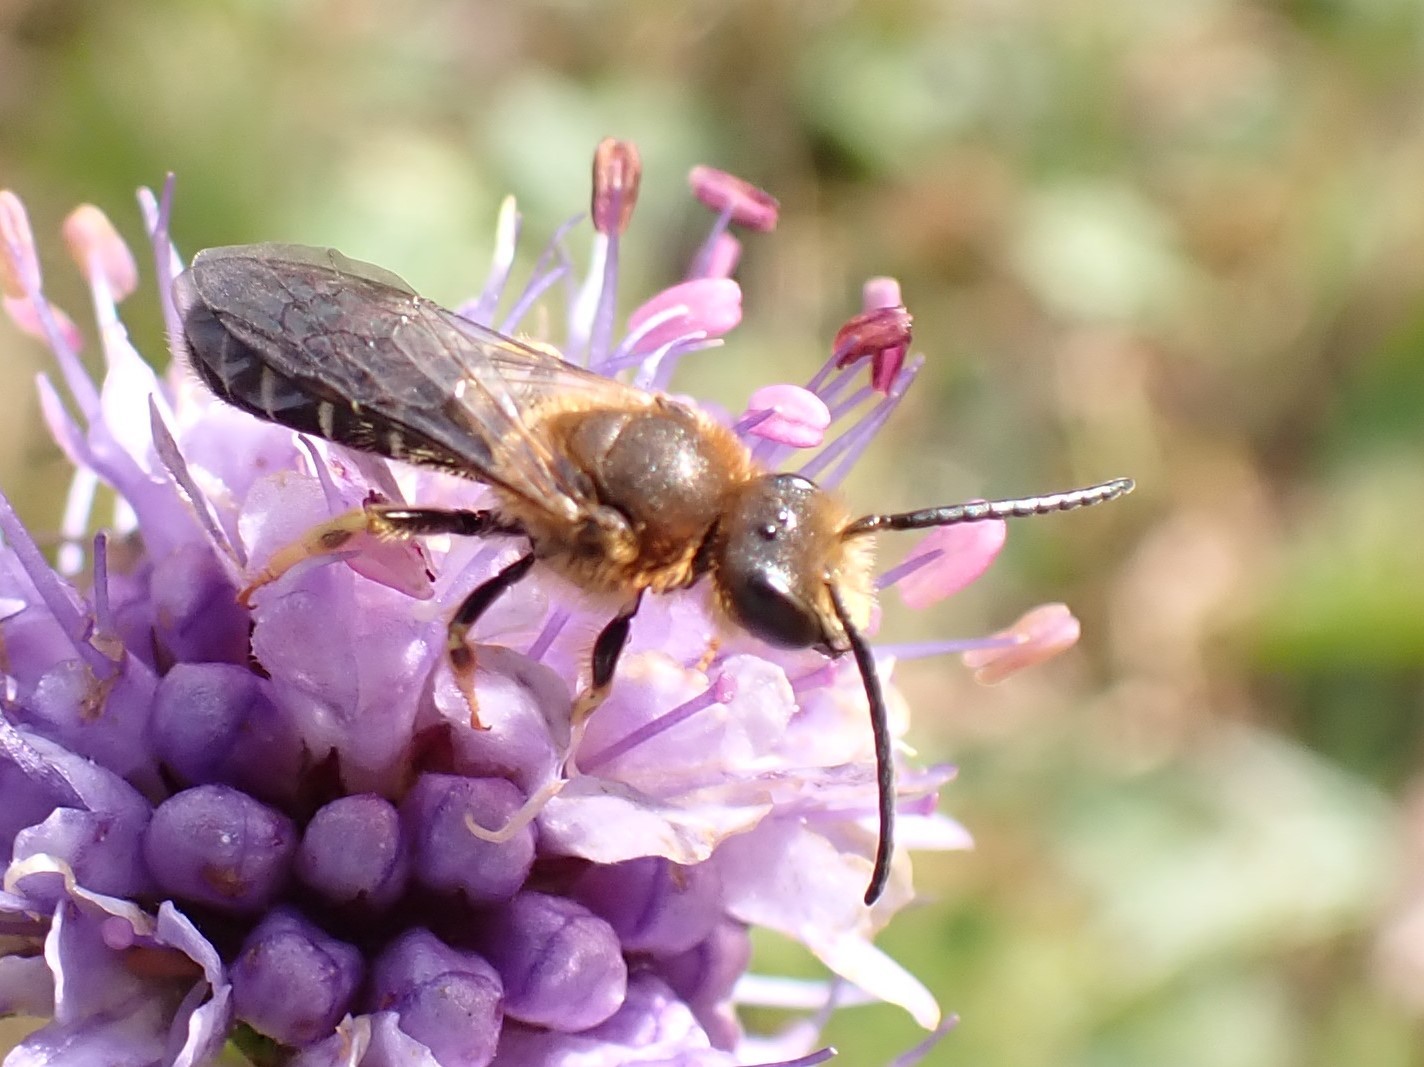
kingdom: Animalia
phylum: Arthropoda
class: Insecta
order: Hymenoptera
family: Halictidae
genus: Halictus
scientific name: Halictus rubicundus
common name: Orange-legged furrow bee
